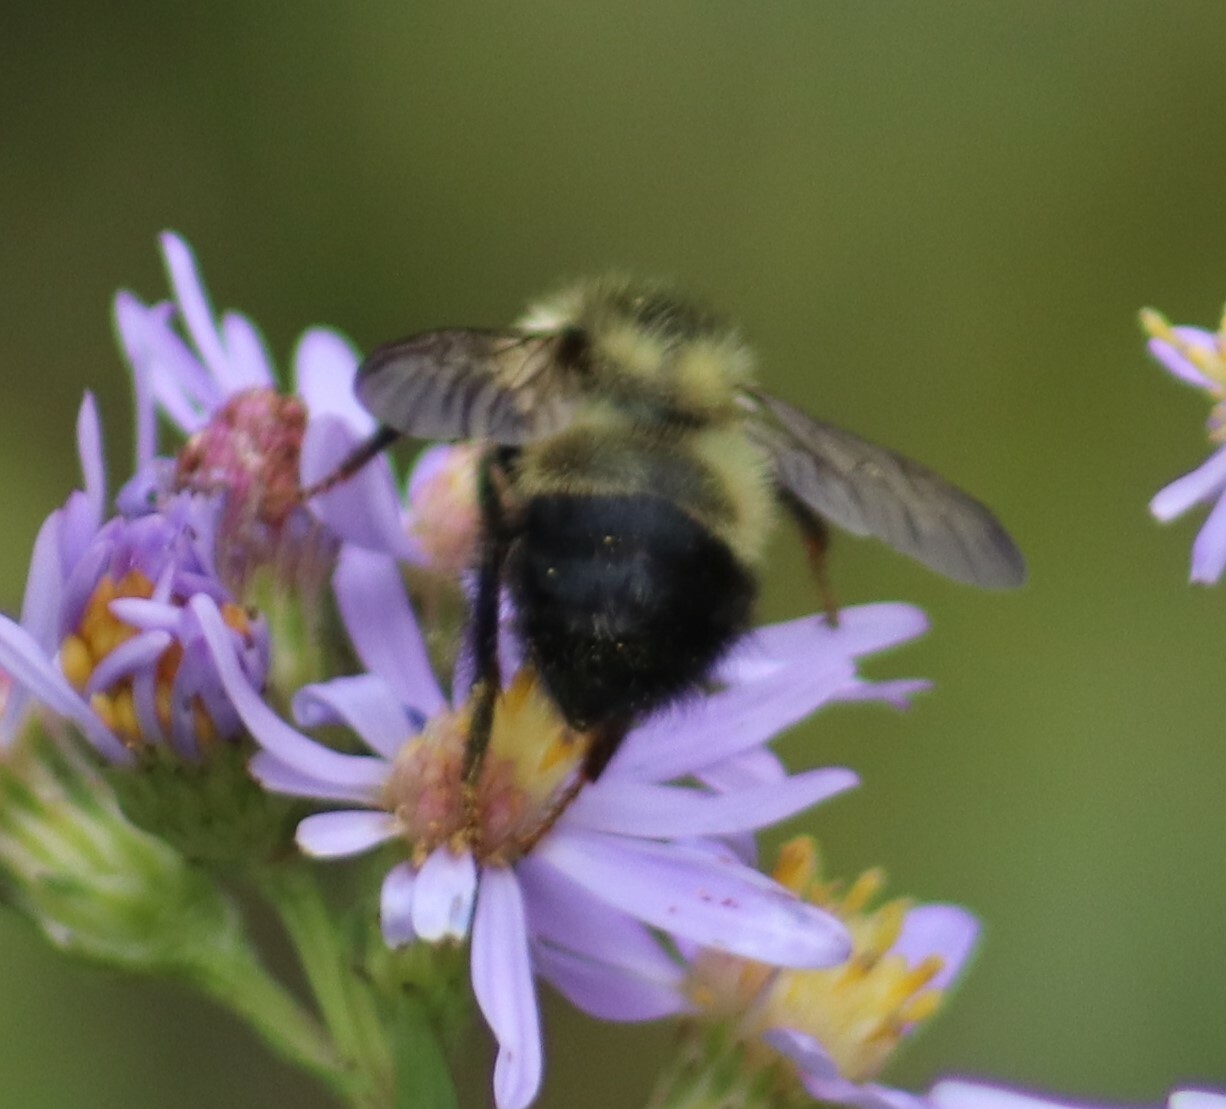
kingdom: Animalia
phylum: Arthropoda
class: Insecta
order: Hymenoptera
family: Apidae
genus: Pyrobombus
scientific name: Pyrobombus
